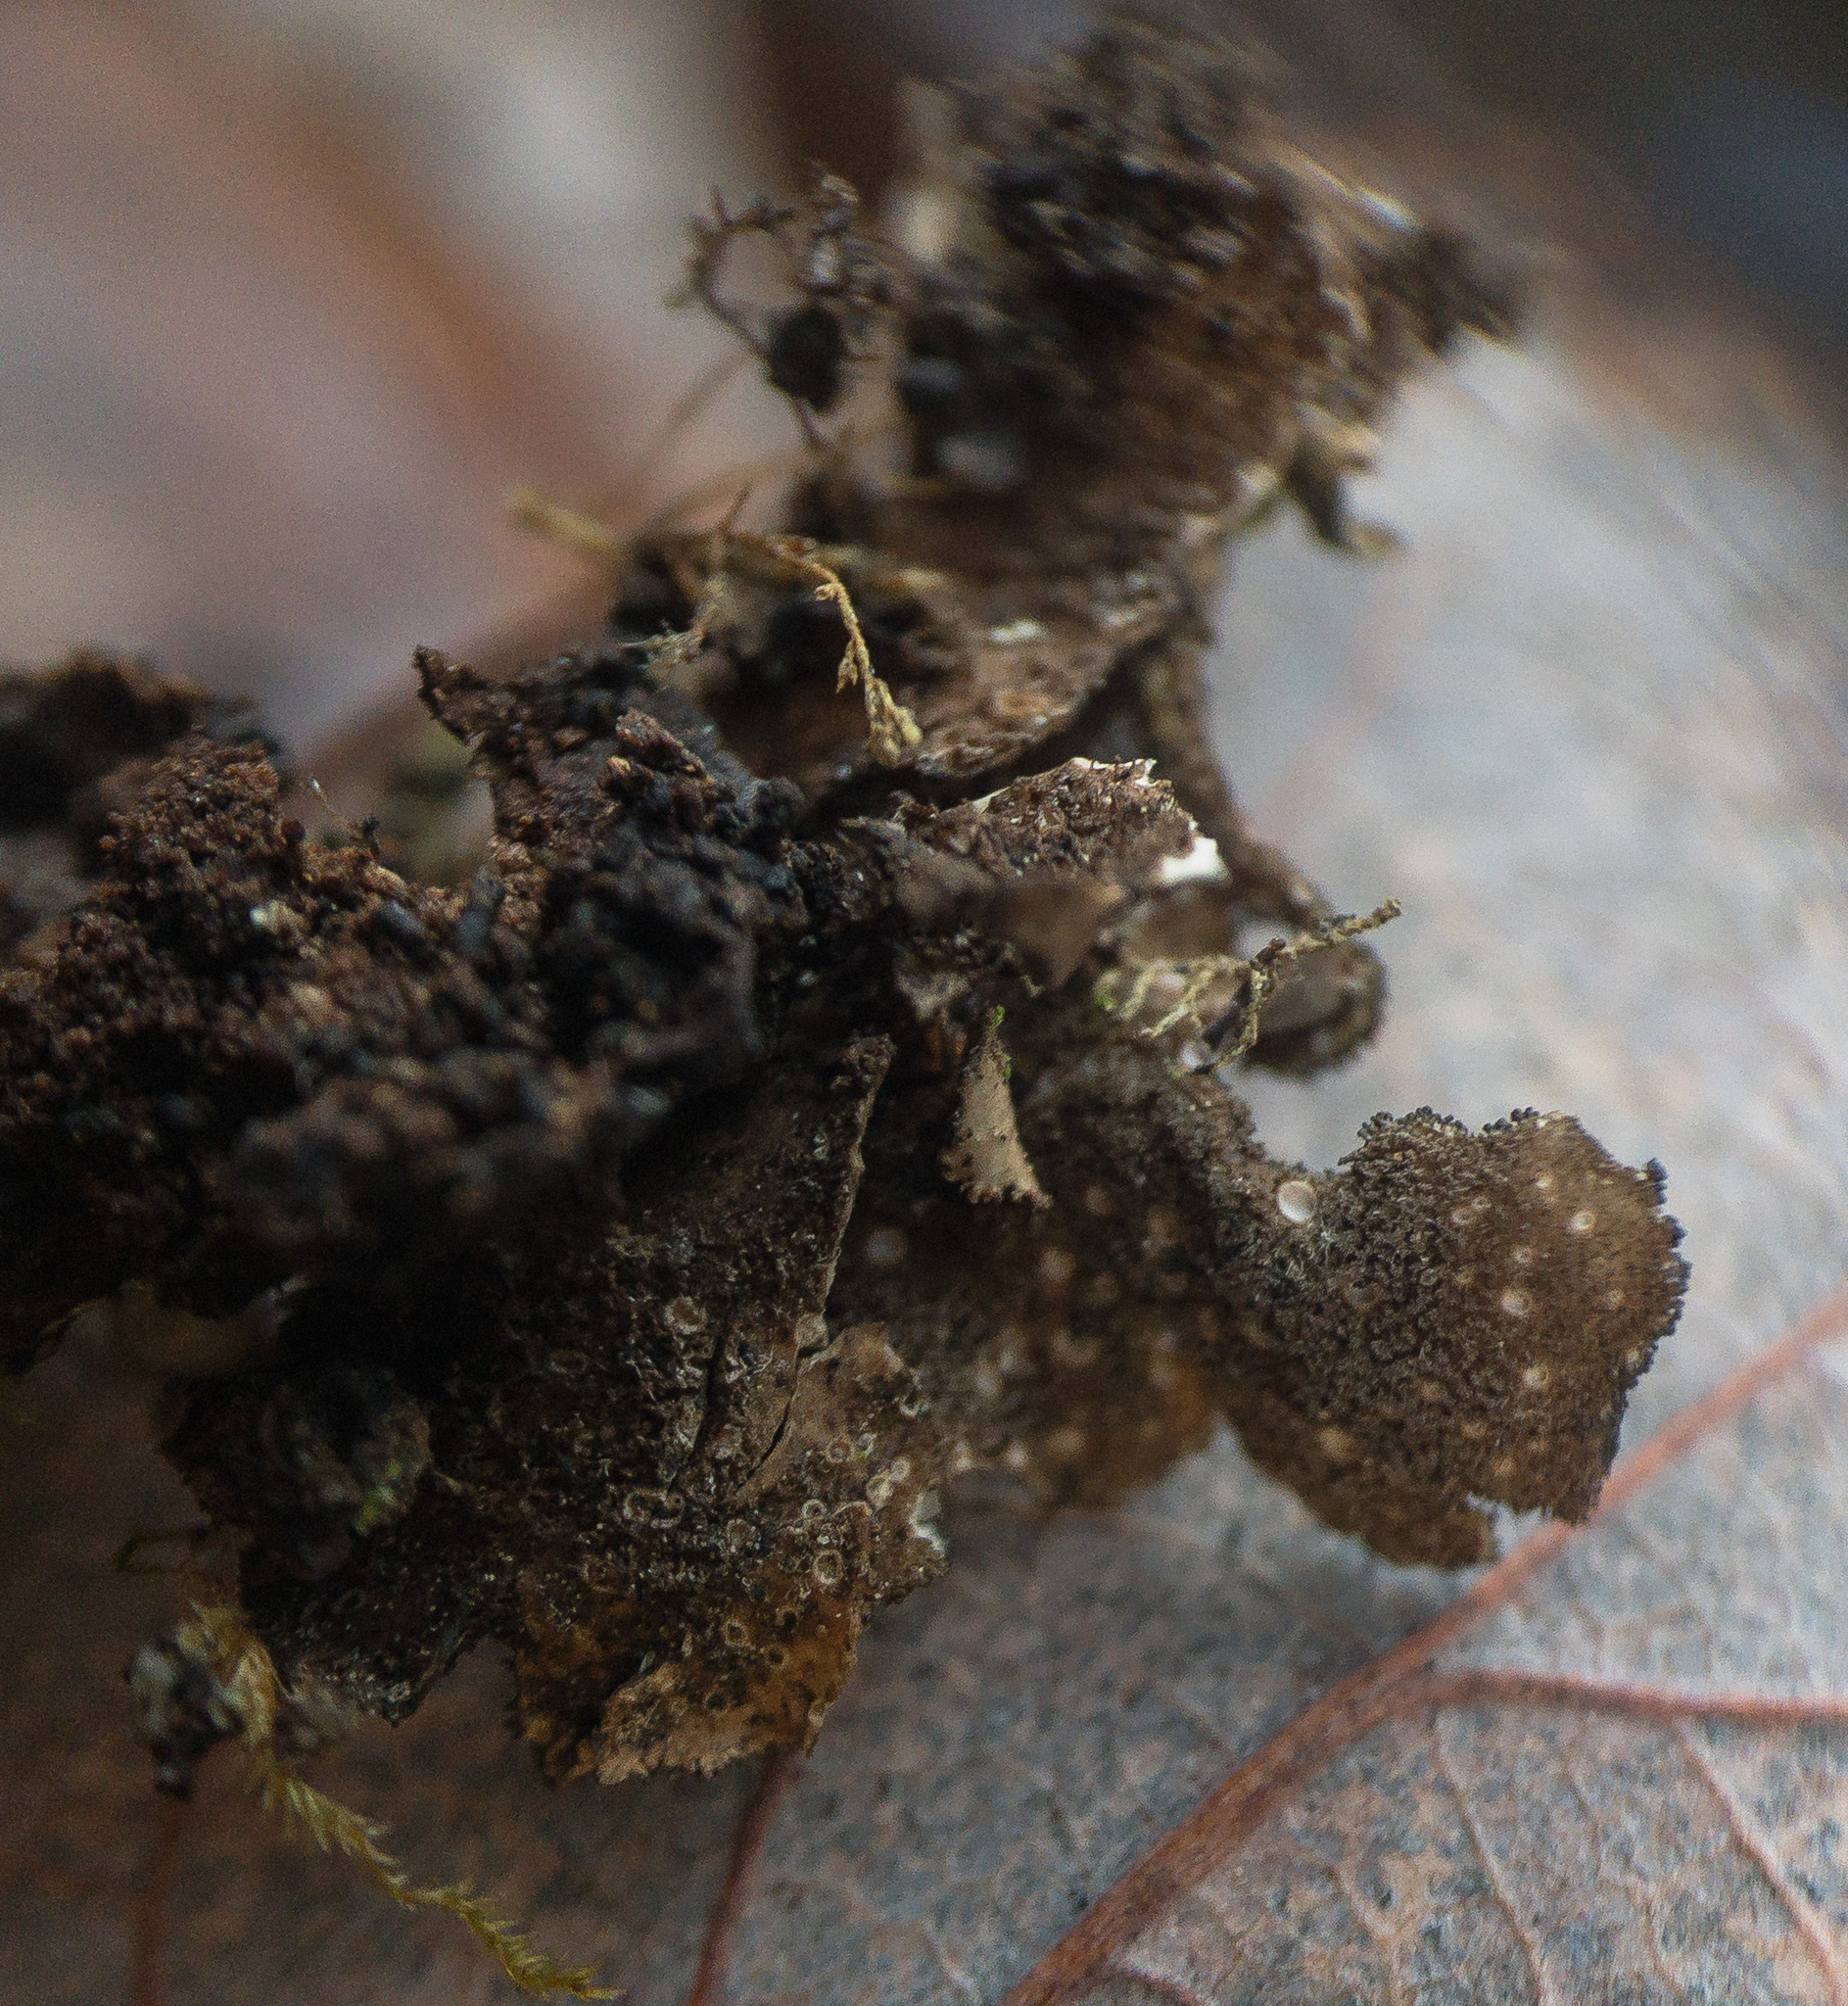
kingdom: Fungi
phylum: Ascomycota
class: Lecanoromycetes
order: Peltigerales
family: Lobariaceae
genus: Sticta
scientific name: Sticta beauvoisii
